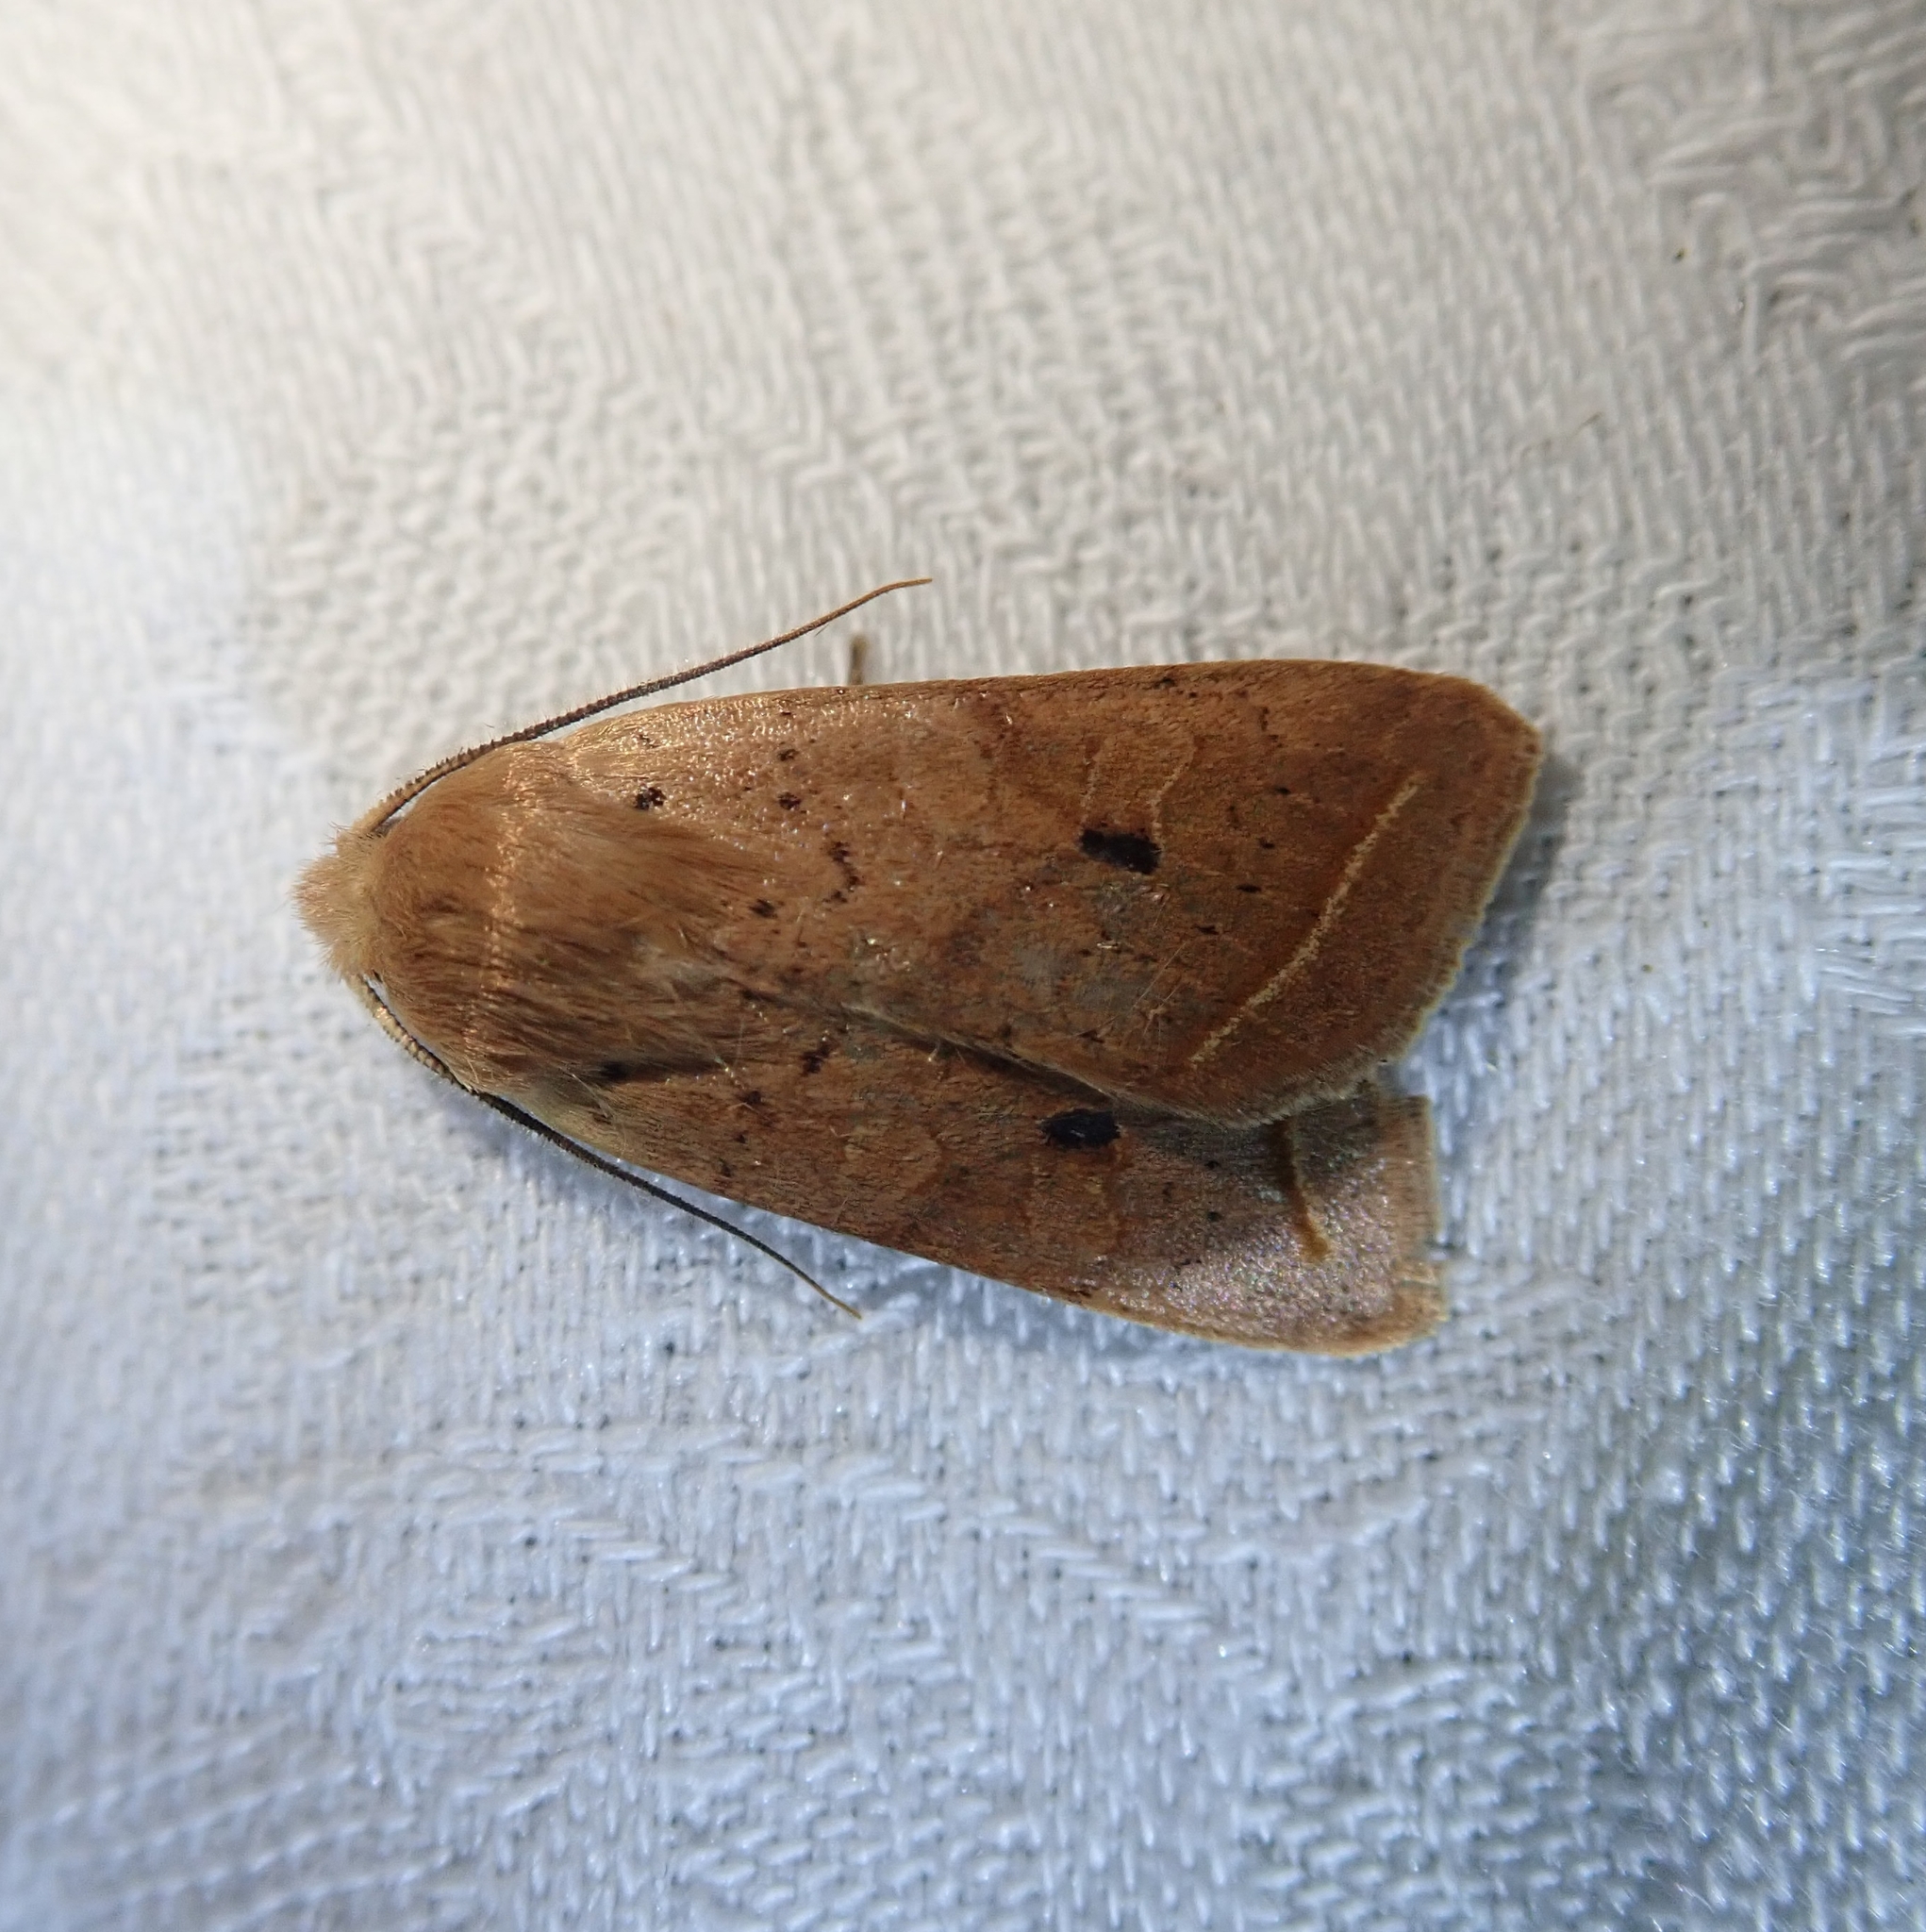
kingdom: Animalia
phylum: Arthropoda
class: Insecta
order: Lepidoptera
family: Noctuidae
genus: Agrochola
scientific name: Agrochola macilenta
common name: Yellow-line quaker
